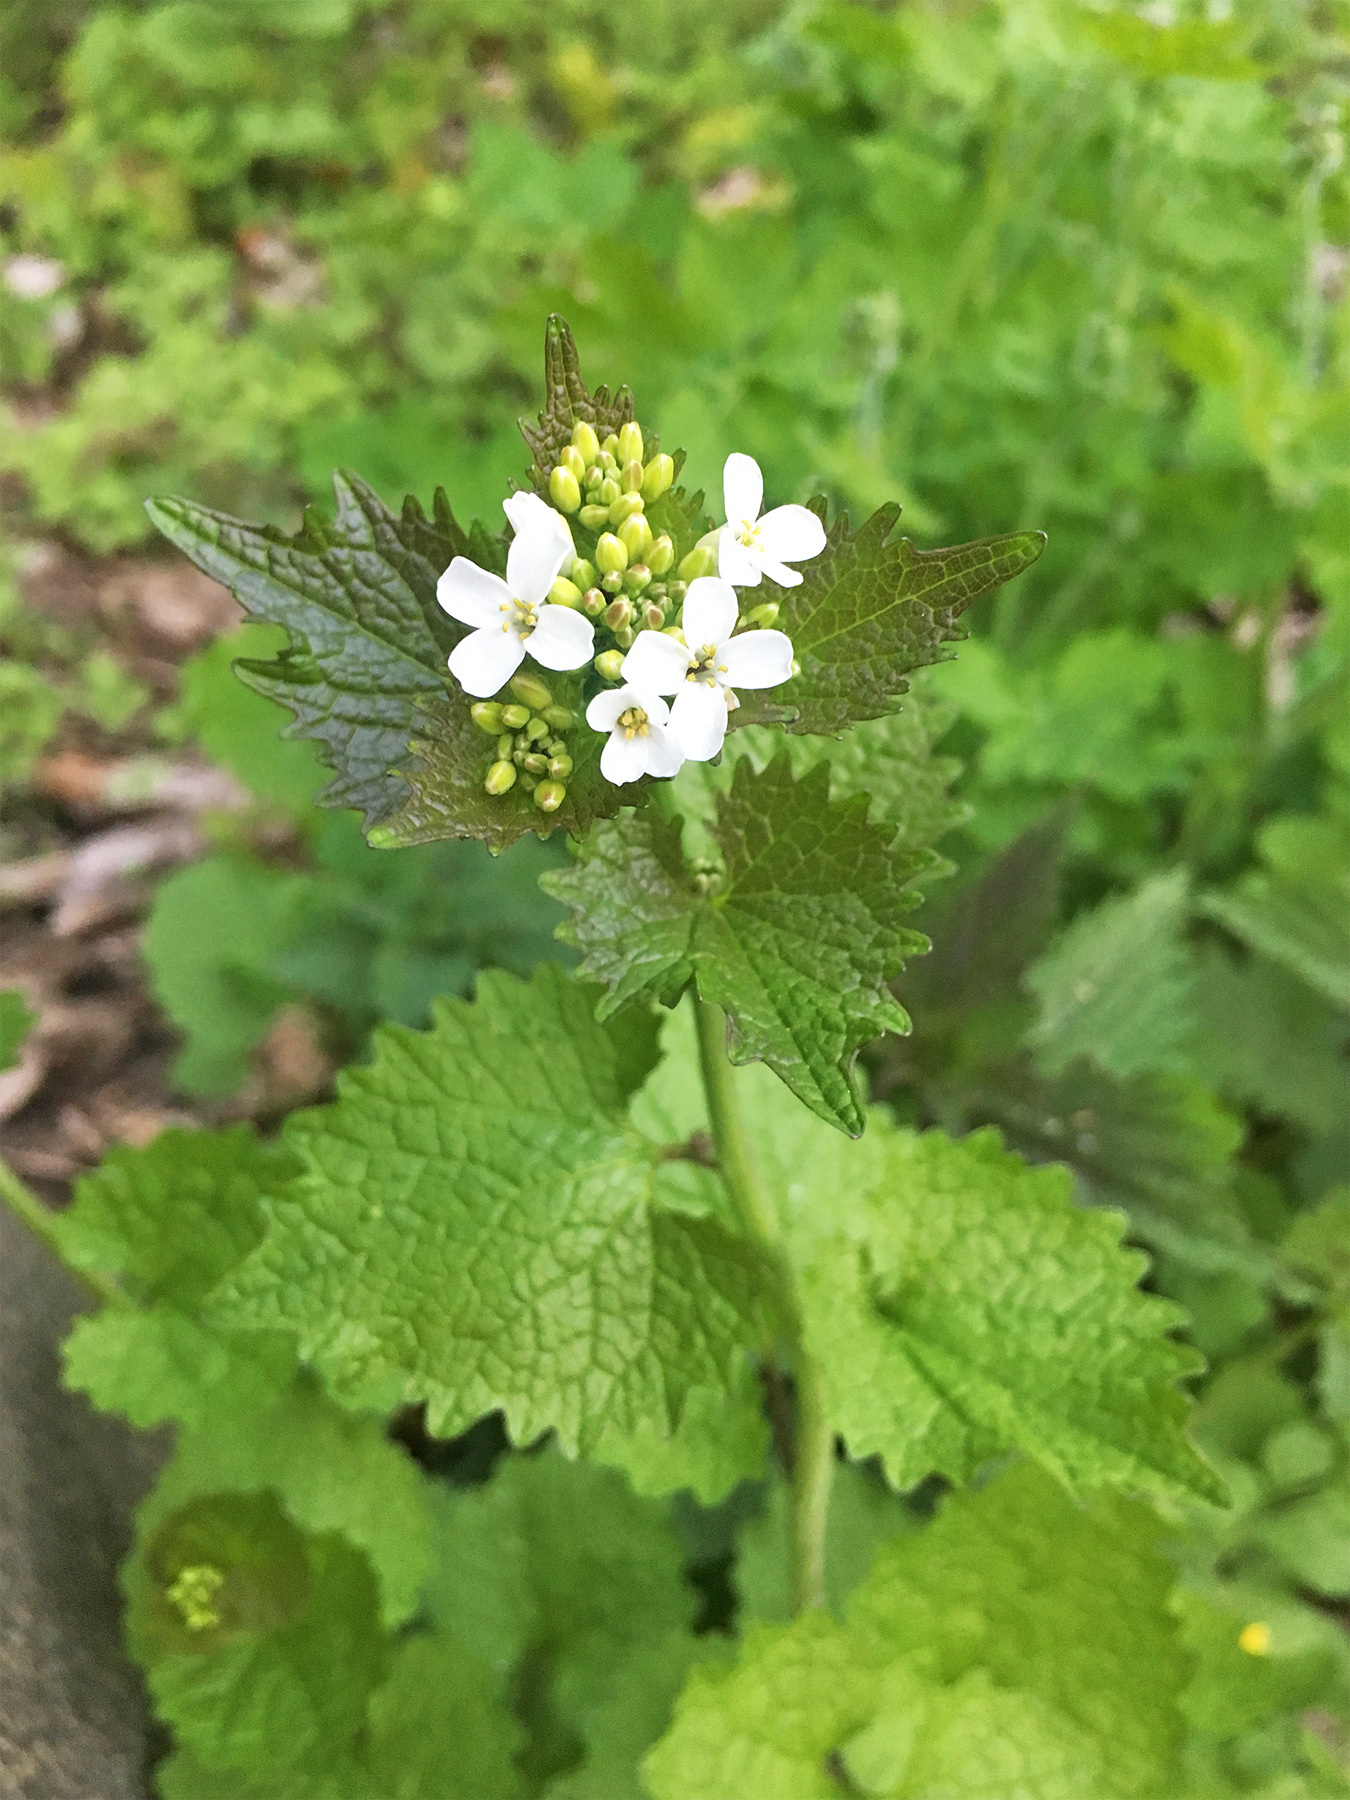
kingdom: Plantae
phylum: Tracheophyta
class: Magnoliopsida
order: Brassicales
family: Brassicaceae
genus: Alliaria
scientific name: Alliaria petiolata
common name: Garlic mustard
